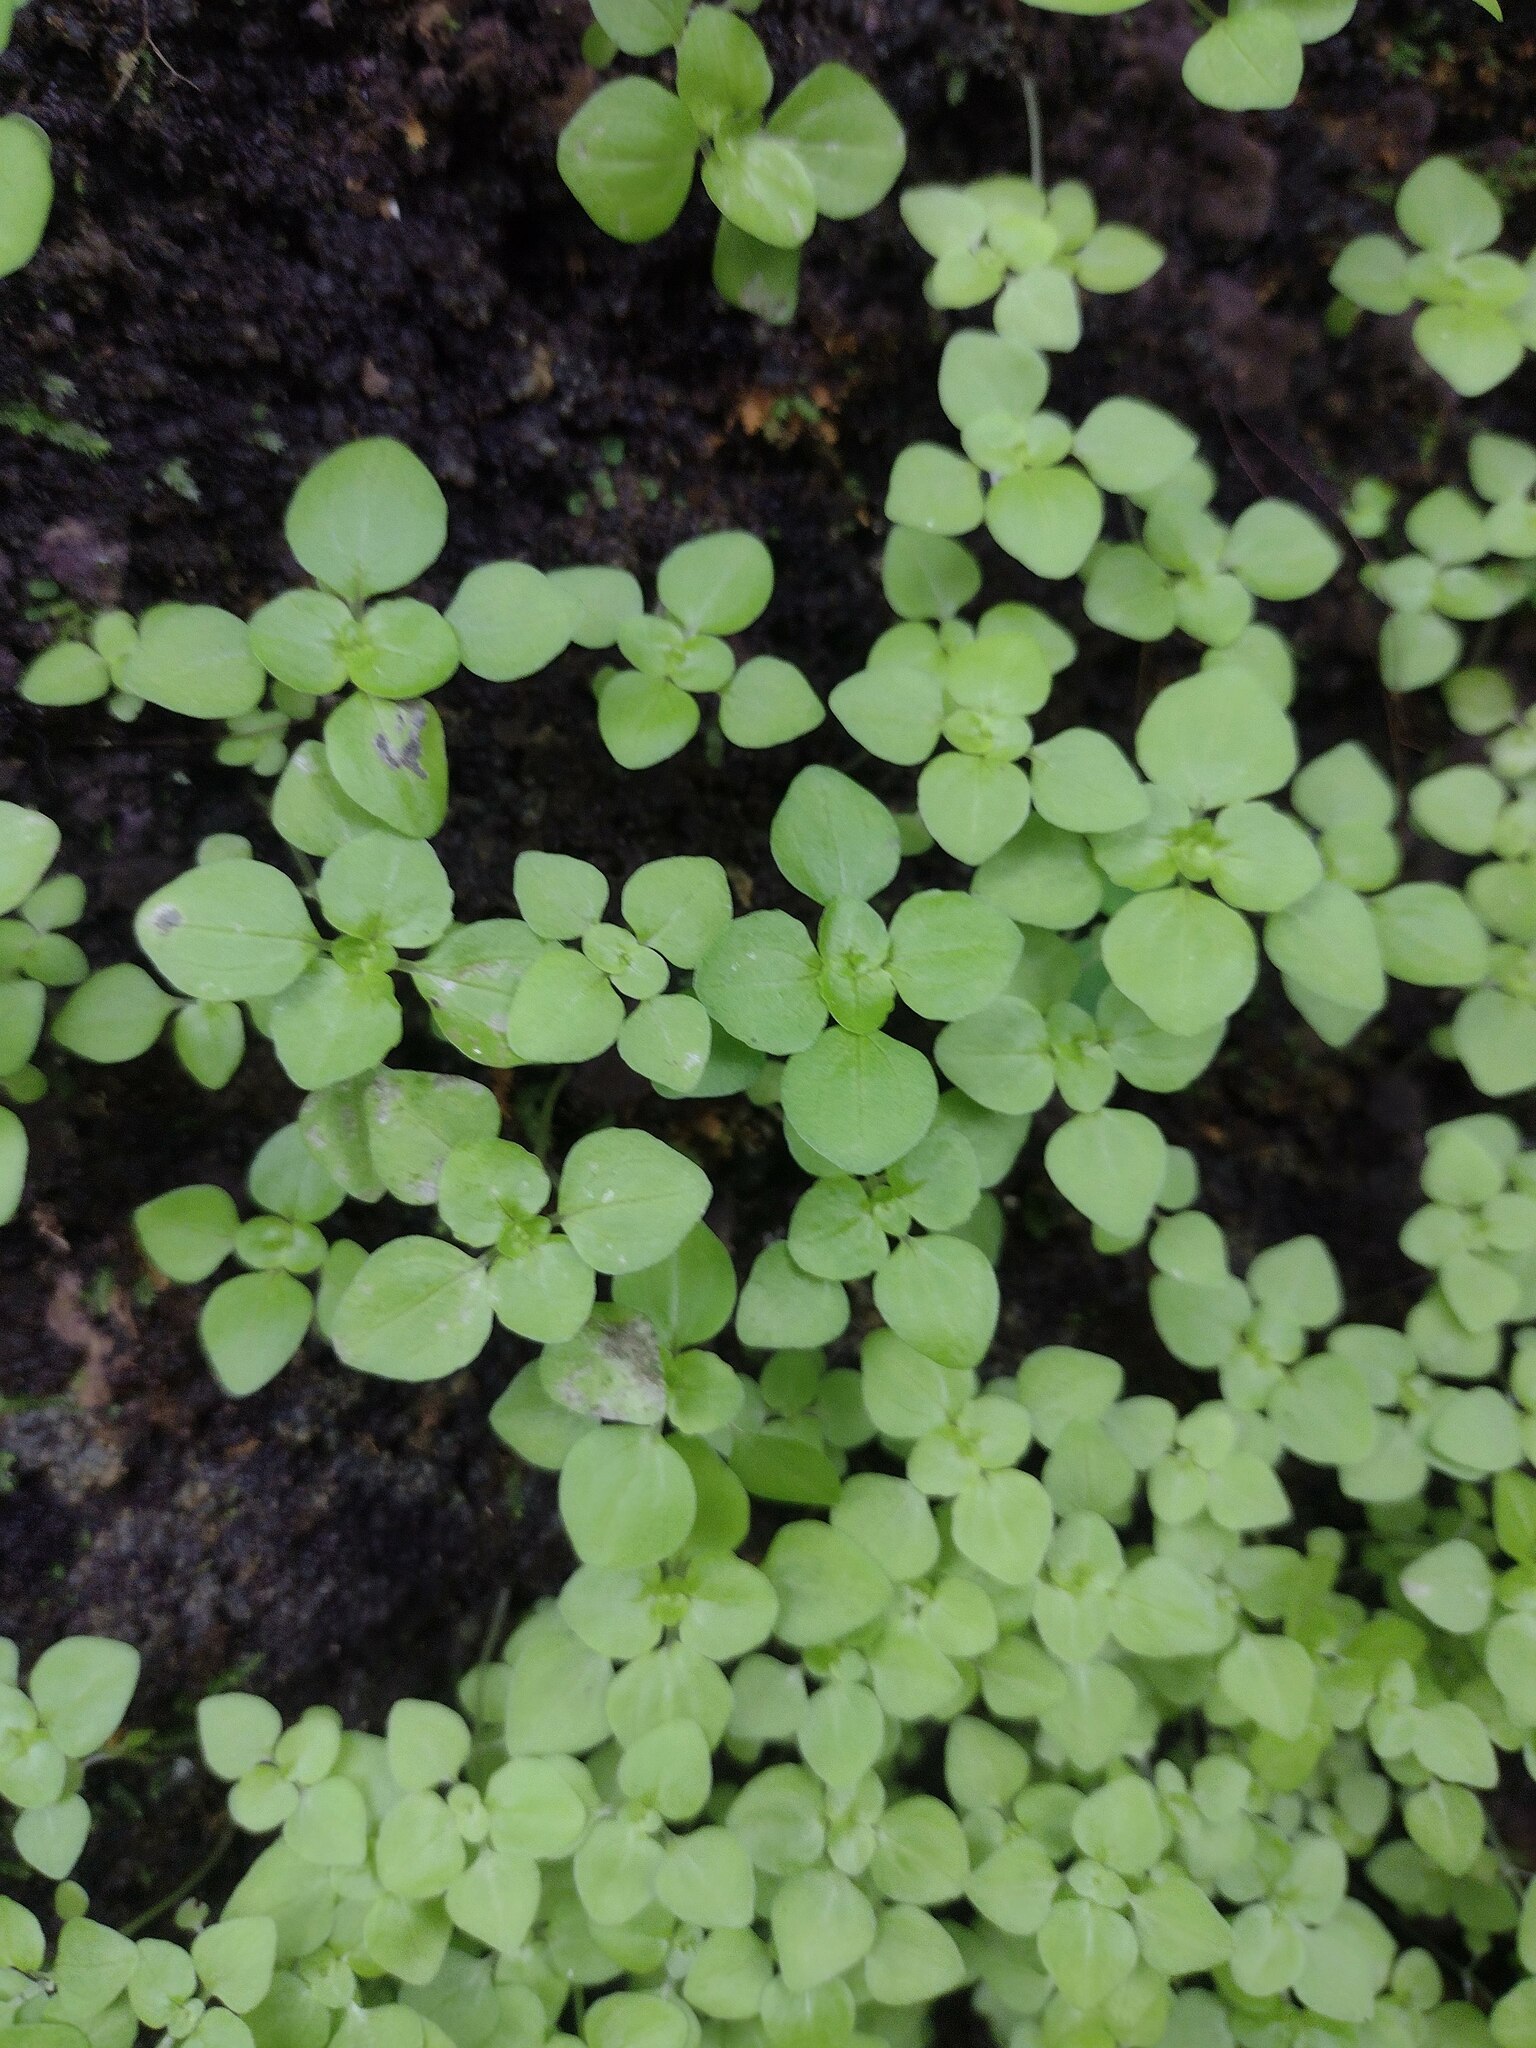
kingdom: Plantae
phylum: Tracheophyta
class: Magnoliopsida
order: Rosales
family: Urticaceae
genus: Pilea
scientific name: Pilea peploides
